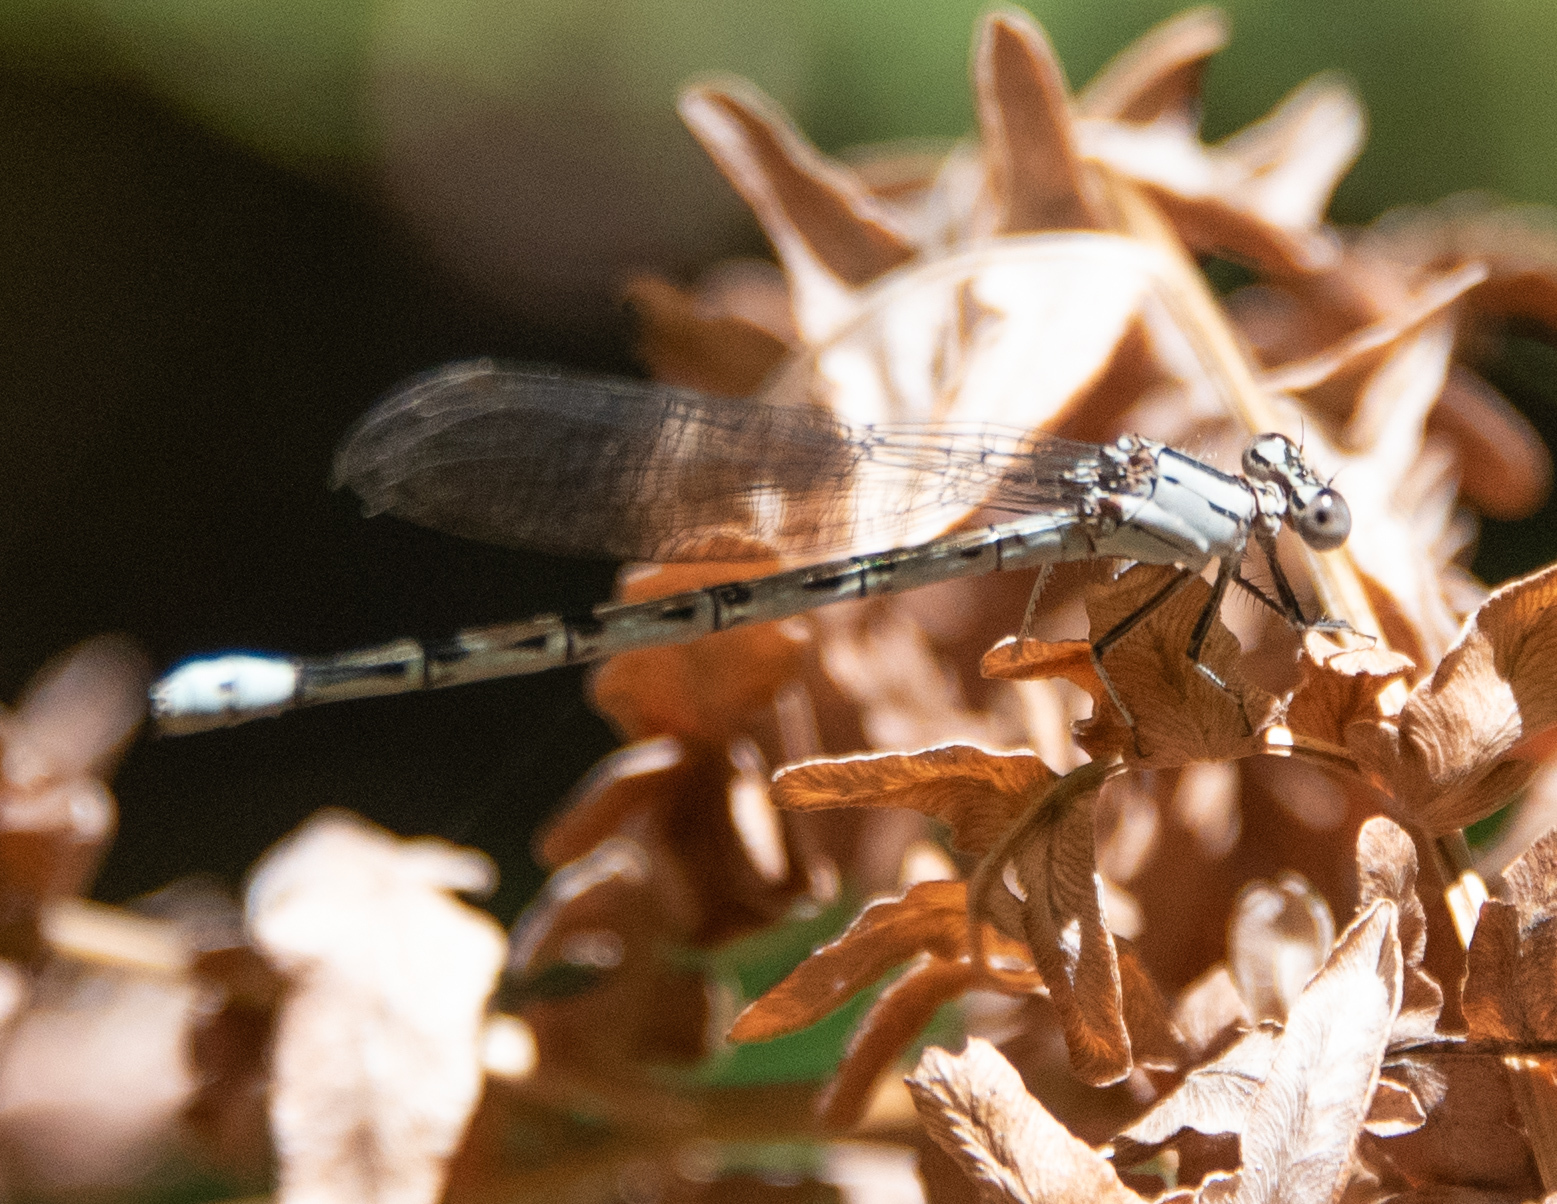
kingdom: Animalia
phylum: Arthropoda
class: Insecta
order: Odonata
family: Coenagrionidae
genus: Argia
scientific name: Argia vivida
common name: Vivid dancer
